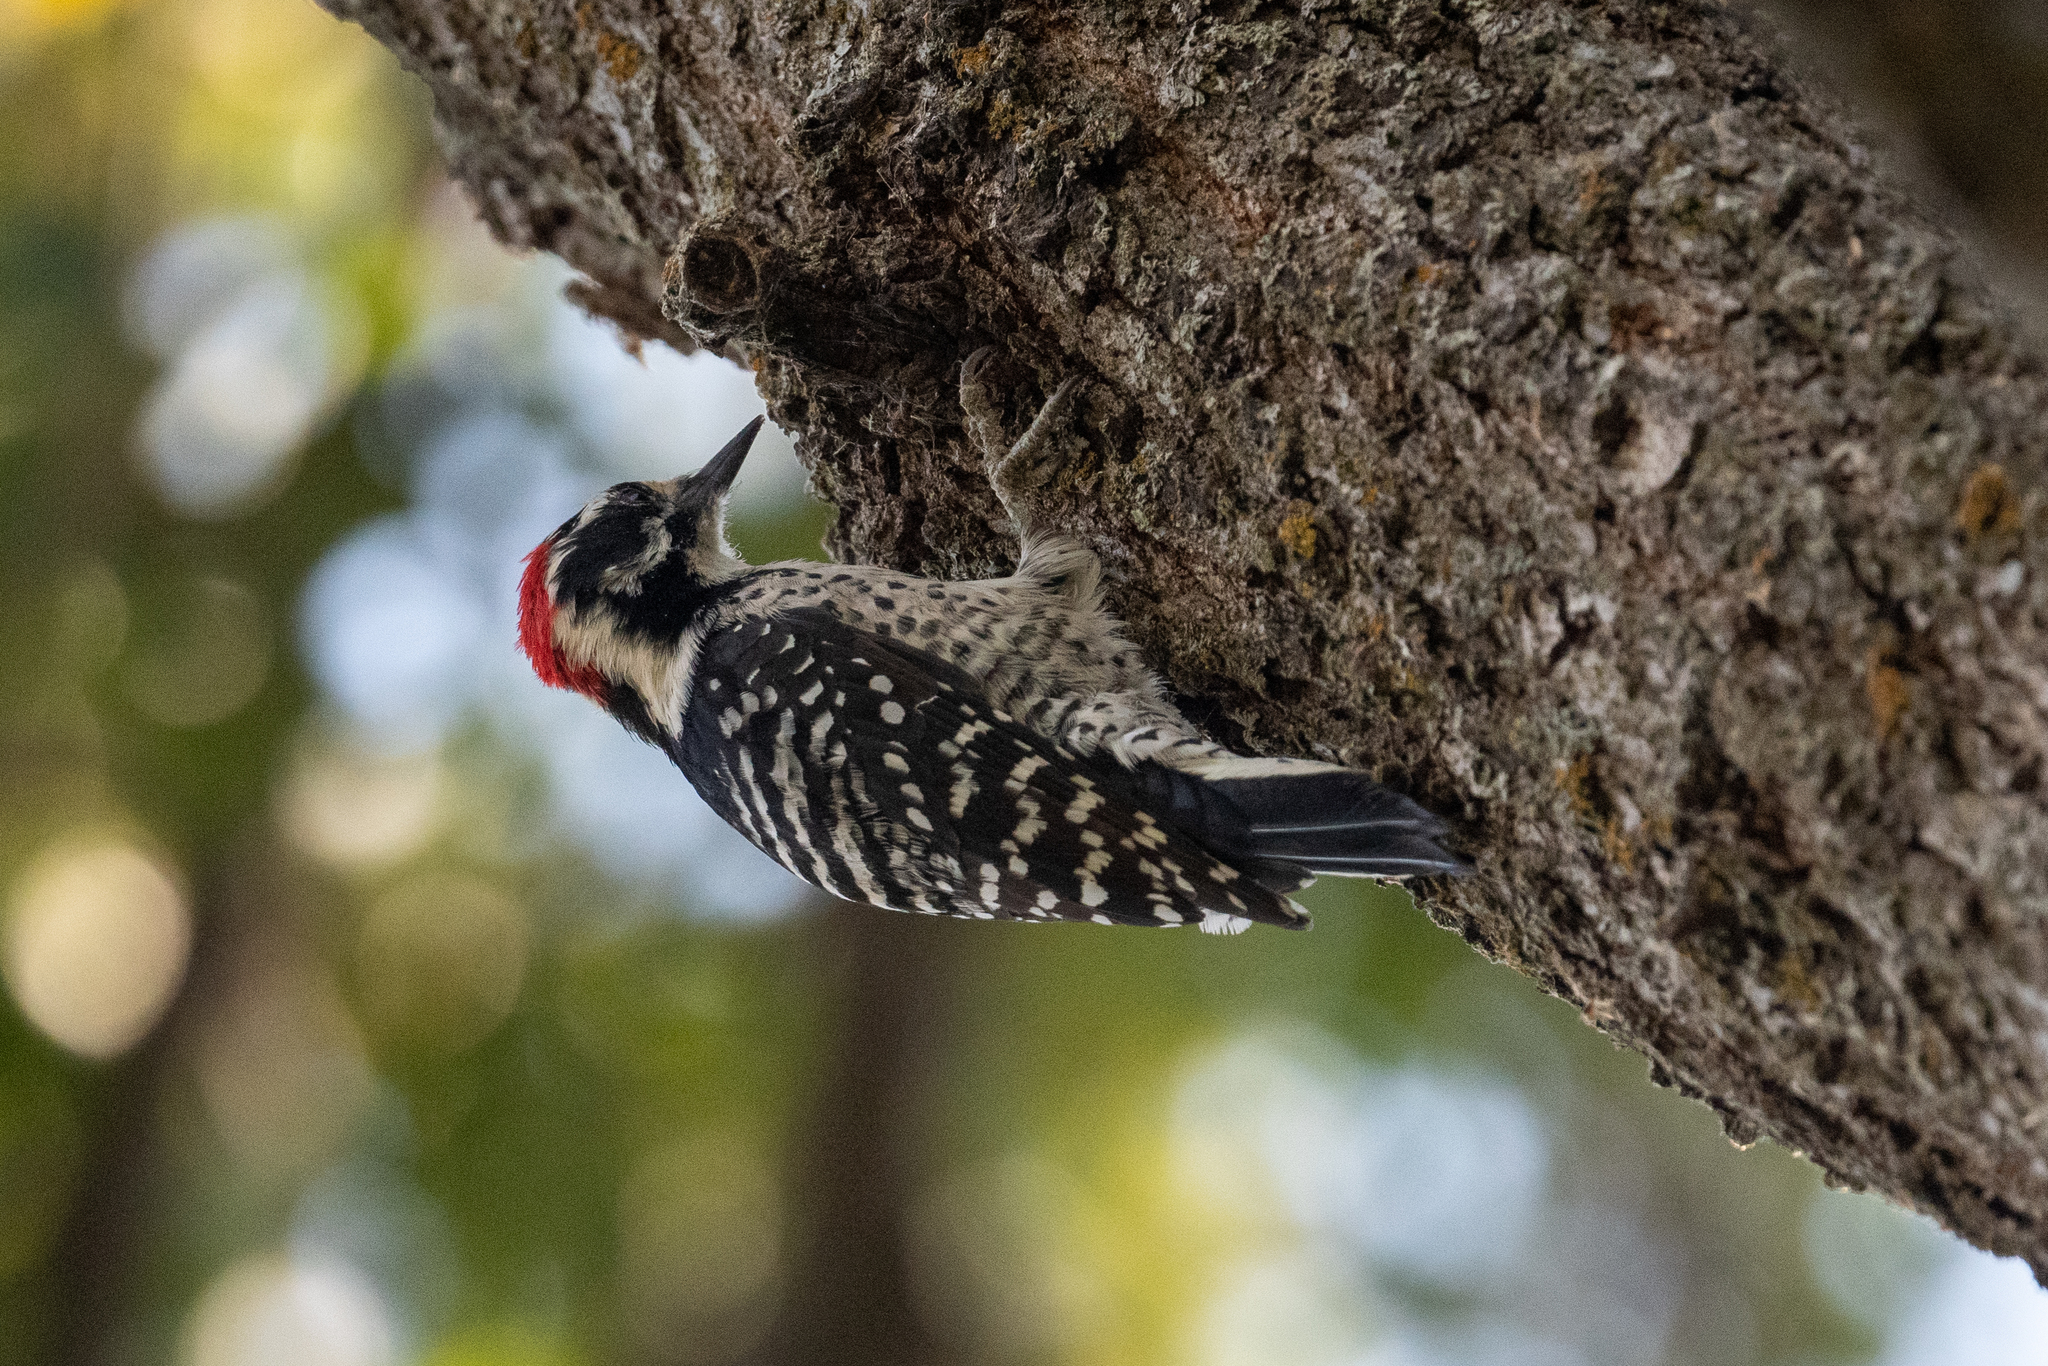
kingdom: Animalia
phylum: Chordata
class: Aves
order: Piciformes
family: Picidae
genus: Dryobates
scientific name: Dryobates nuttallii
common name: Nuttall's woodpecker
